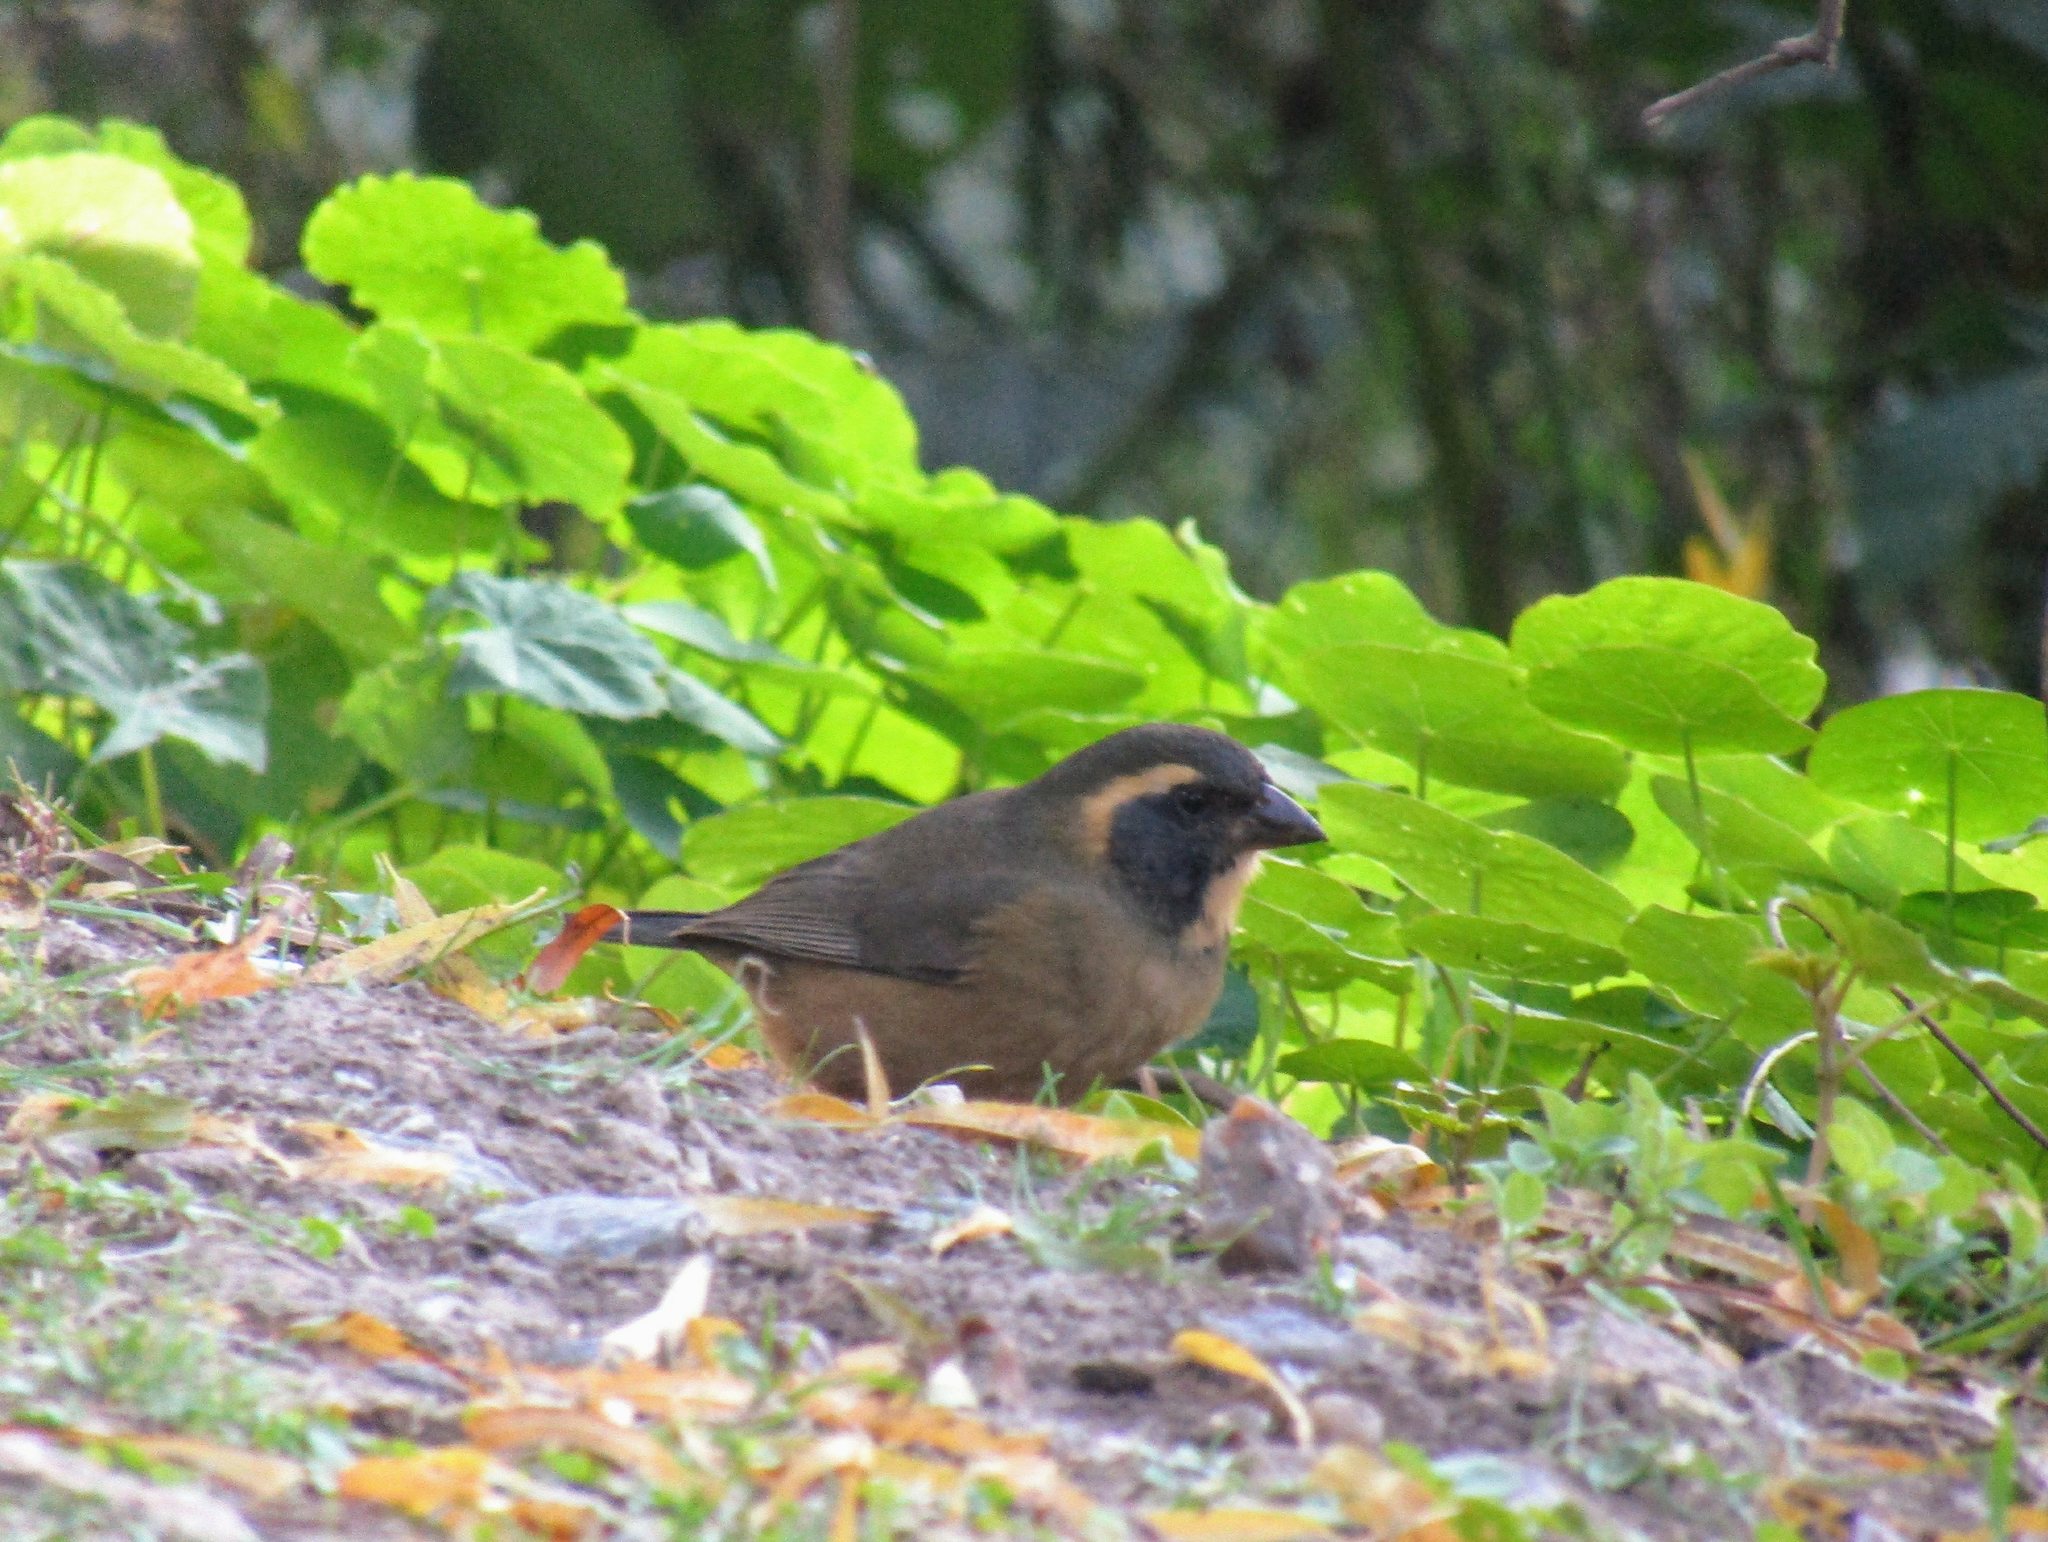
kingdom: Animalia
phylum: Chordata
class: Aves
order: Passeriformes
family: Thraupidae
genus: Saltator
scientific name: Saltator aurantiirostris
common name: Golden-billed saltator
